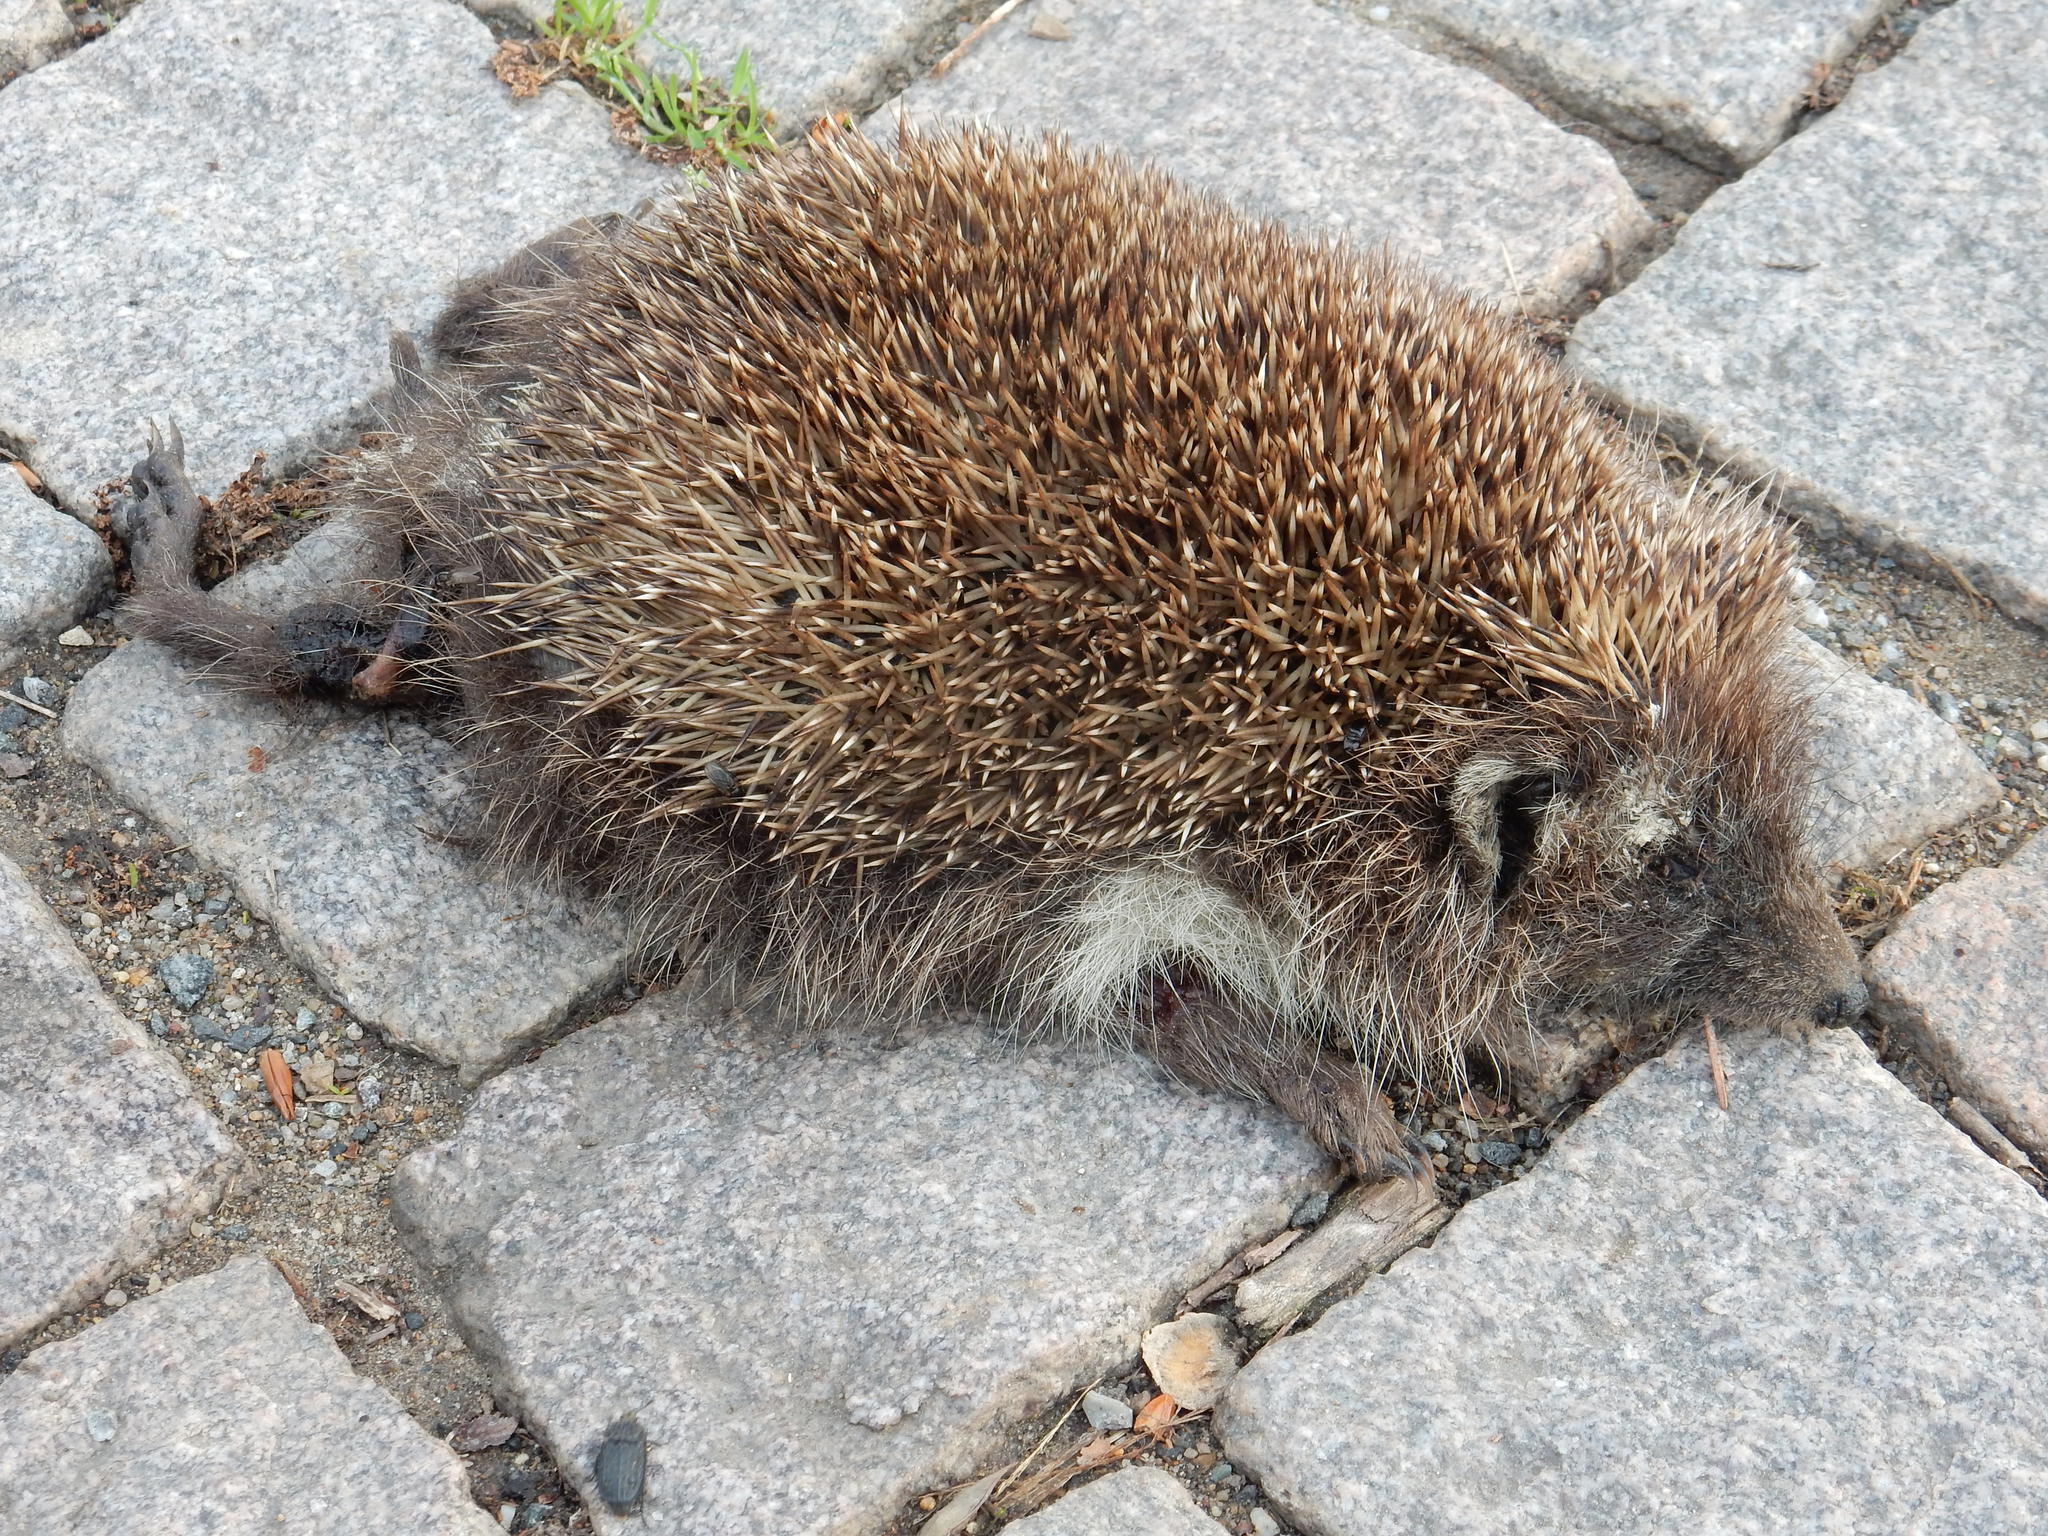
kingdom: Animalia
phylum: Chordata
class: Mammalia
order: Erinaceomorpha
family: Erinaceidae
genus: Erinaceus
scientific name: Erinaceus roumanicus
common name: Northern white-breasted hedgehog
